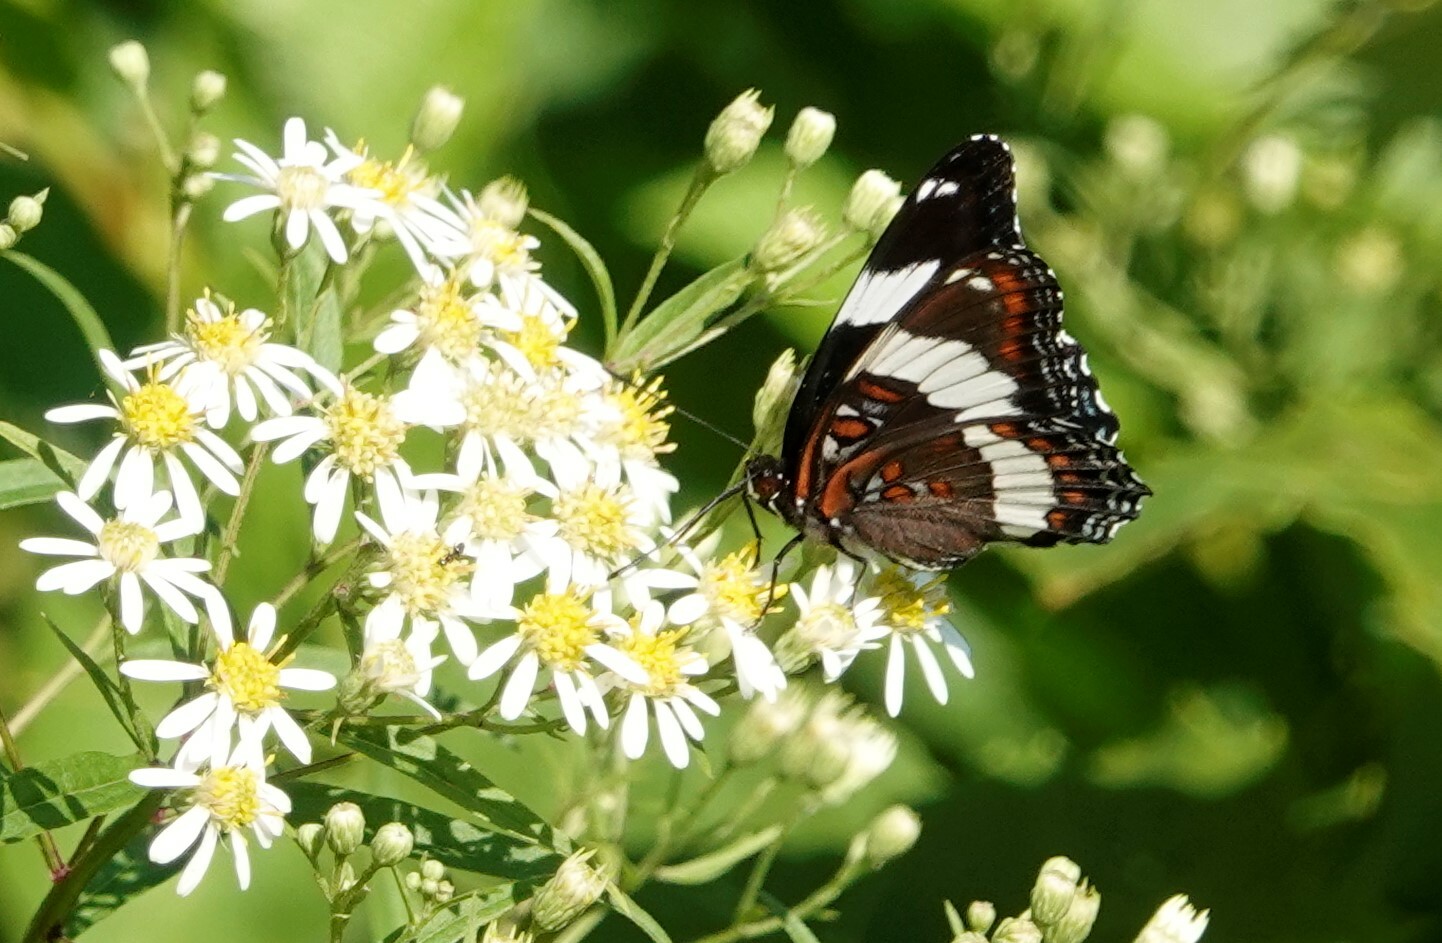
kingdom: Animalia
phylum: Arthropoda
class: Insecta
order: Lepidoptera
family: Nymphalidae
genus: Limenitis
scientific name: Limenitis arthemis
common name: Red-spotted admiral
